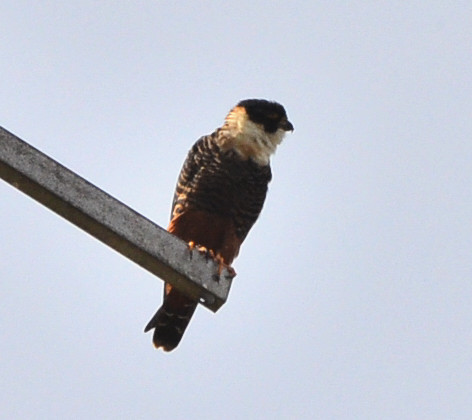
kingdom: Animalia
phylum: Chordata
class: Aves
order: Falconiformes
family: Falconidae
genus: Falco
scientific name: Falco rufigularis
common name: Bat falcon
